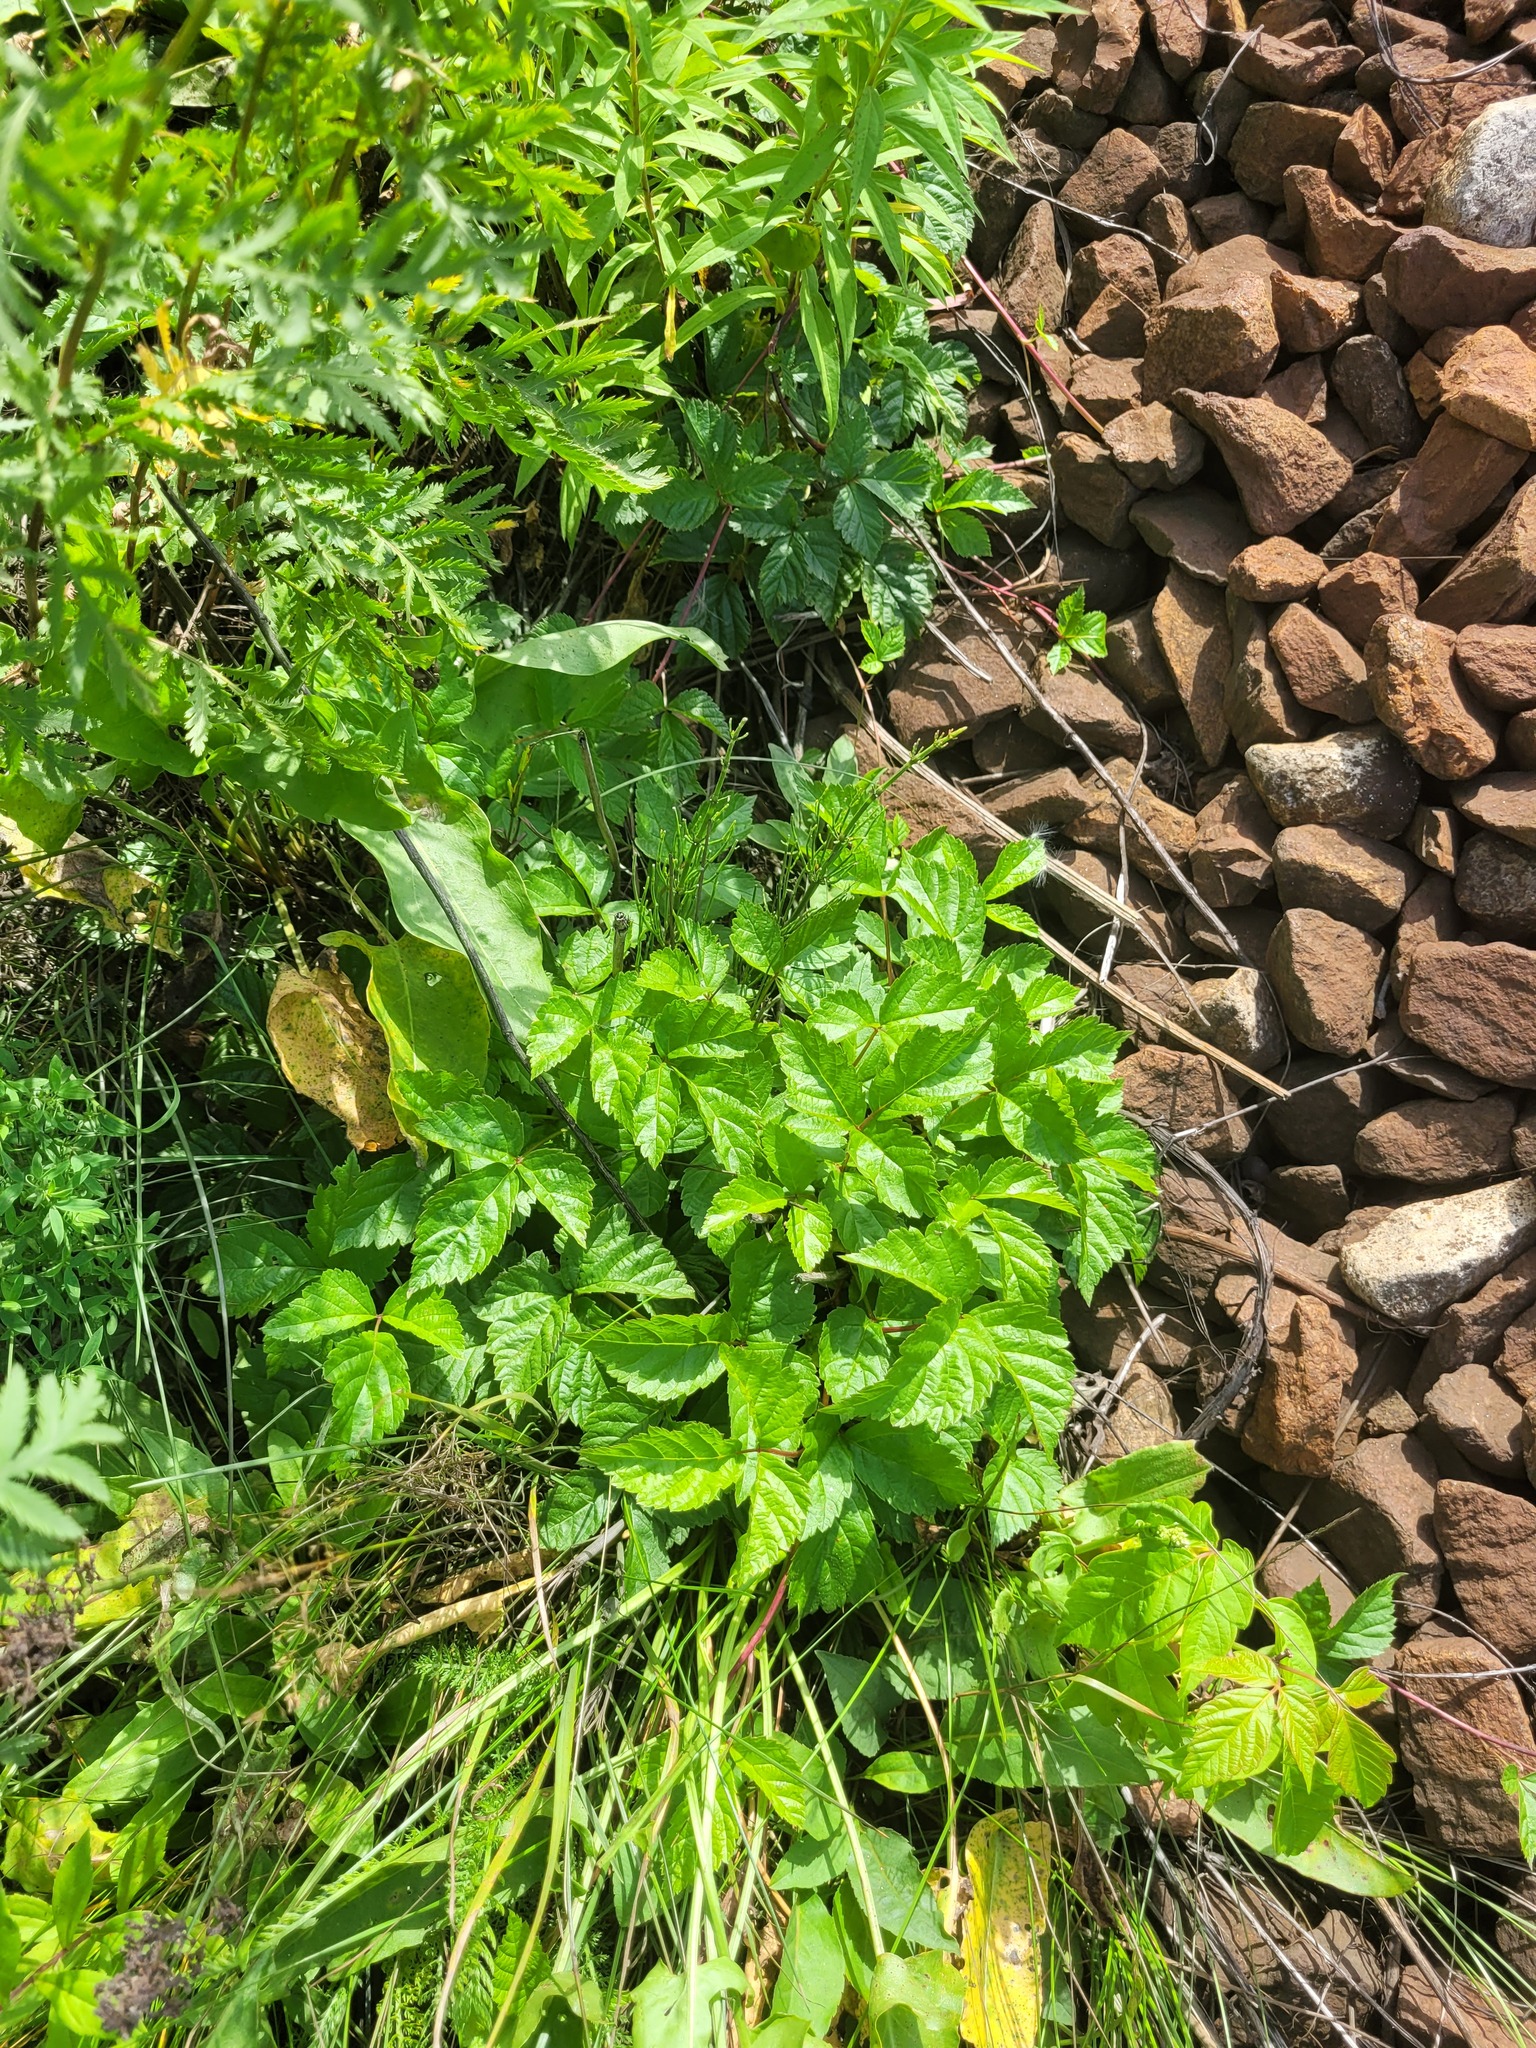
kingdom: Plantae
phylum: Tracheophyta
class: Magnoliopsida
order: Rosales
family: Rosaceae
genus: Rubus
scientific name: Rubus saxatilis
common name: Stone bramble
